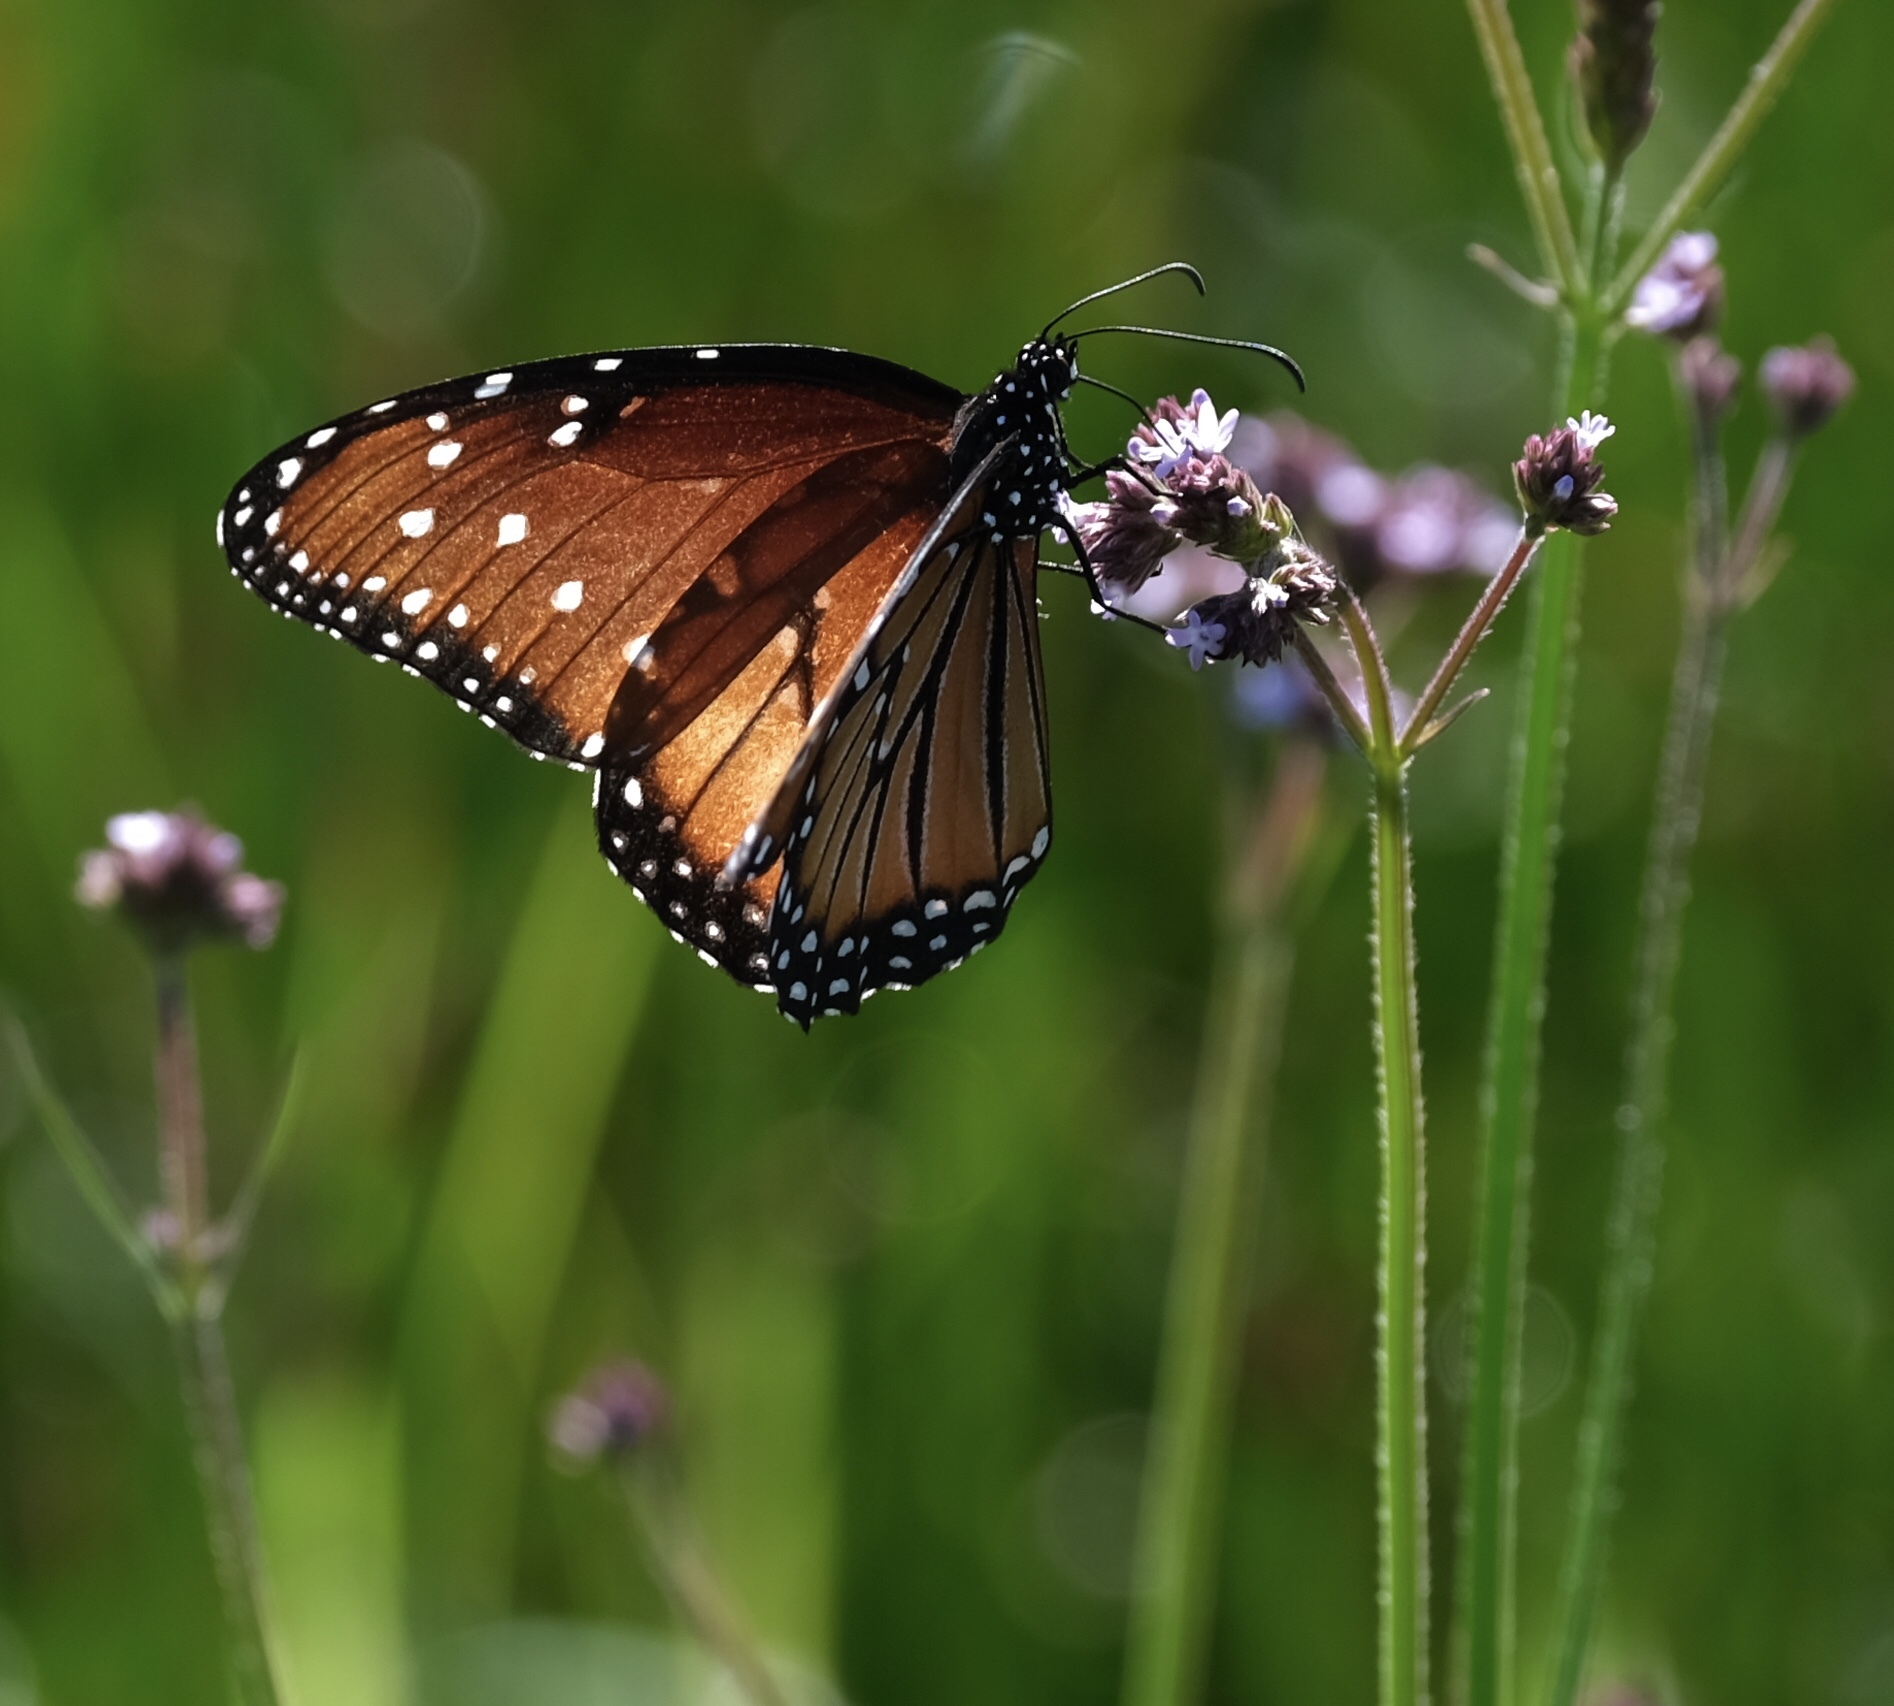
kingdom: Animalia
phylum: Arthropoda
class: Insecta
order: Lepidoptera
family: Nymphalidae
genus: Danaus
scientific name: Danaus gilippus
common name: Queen
